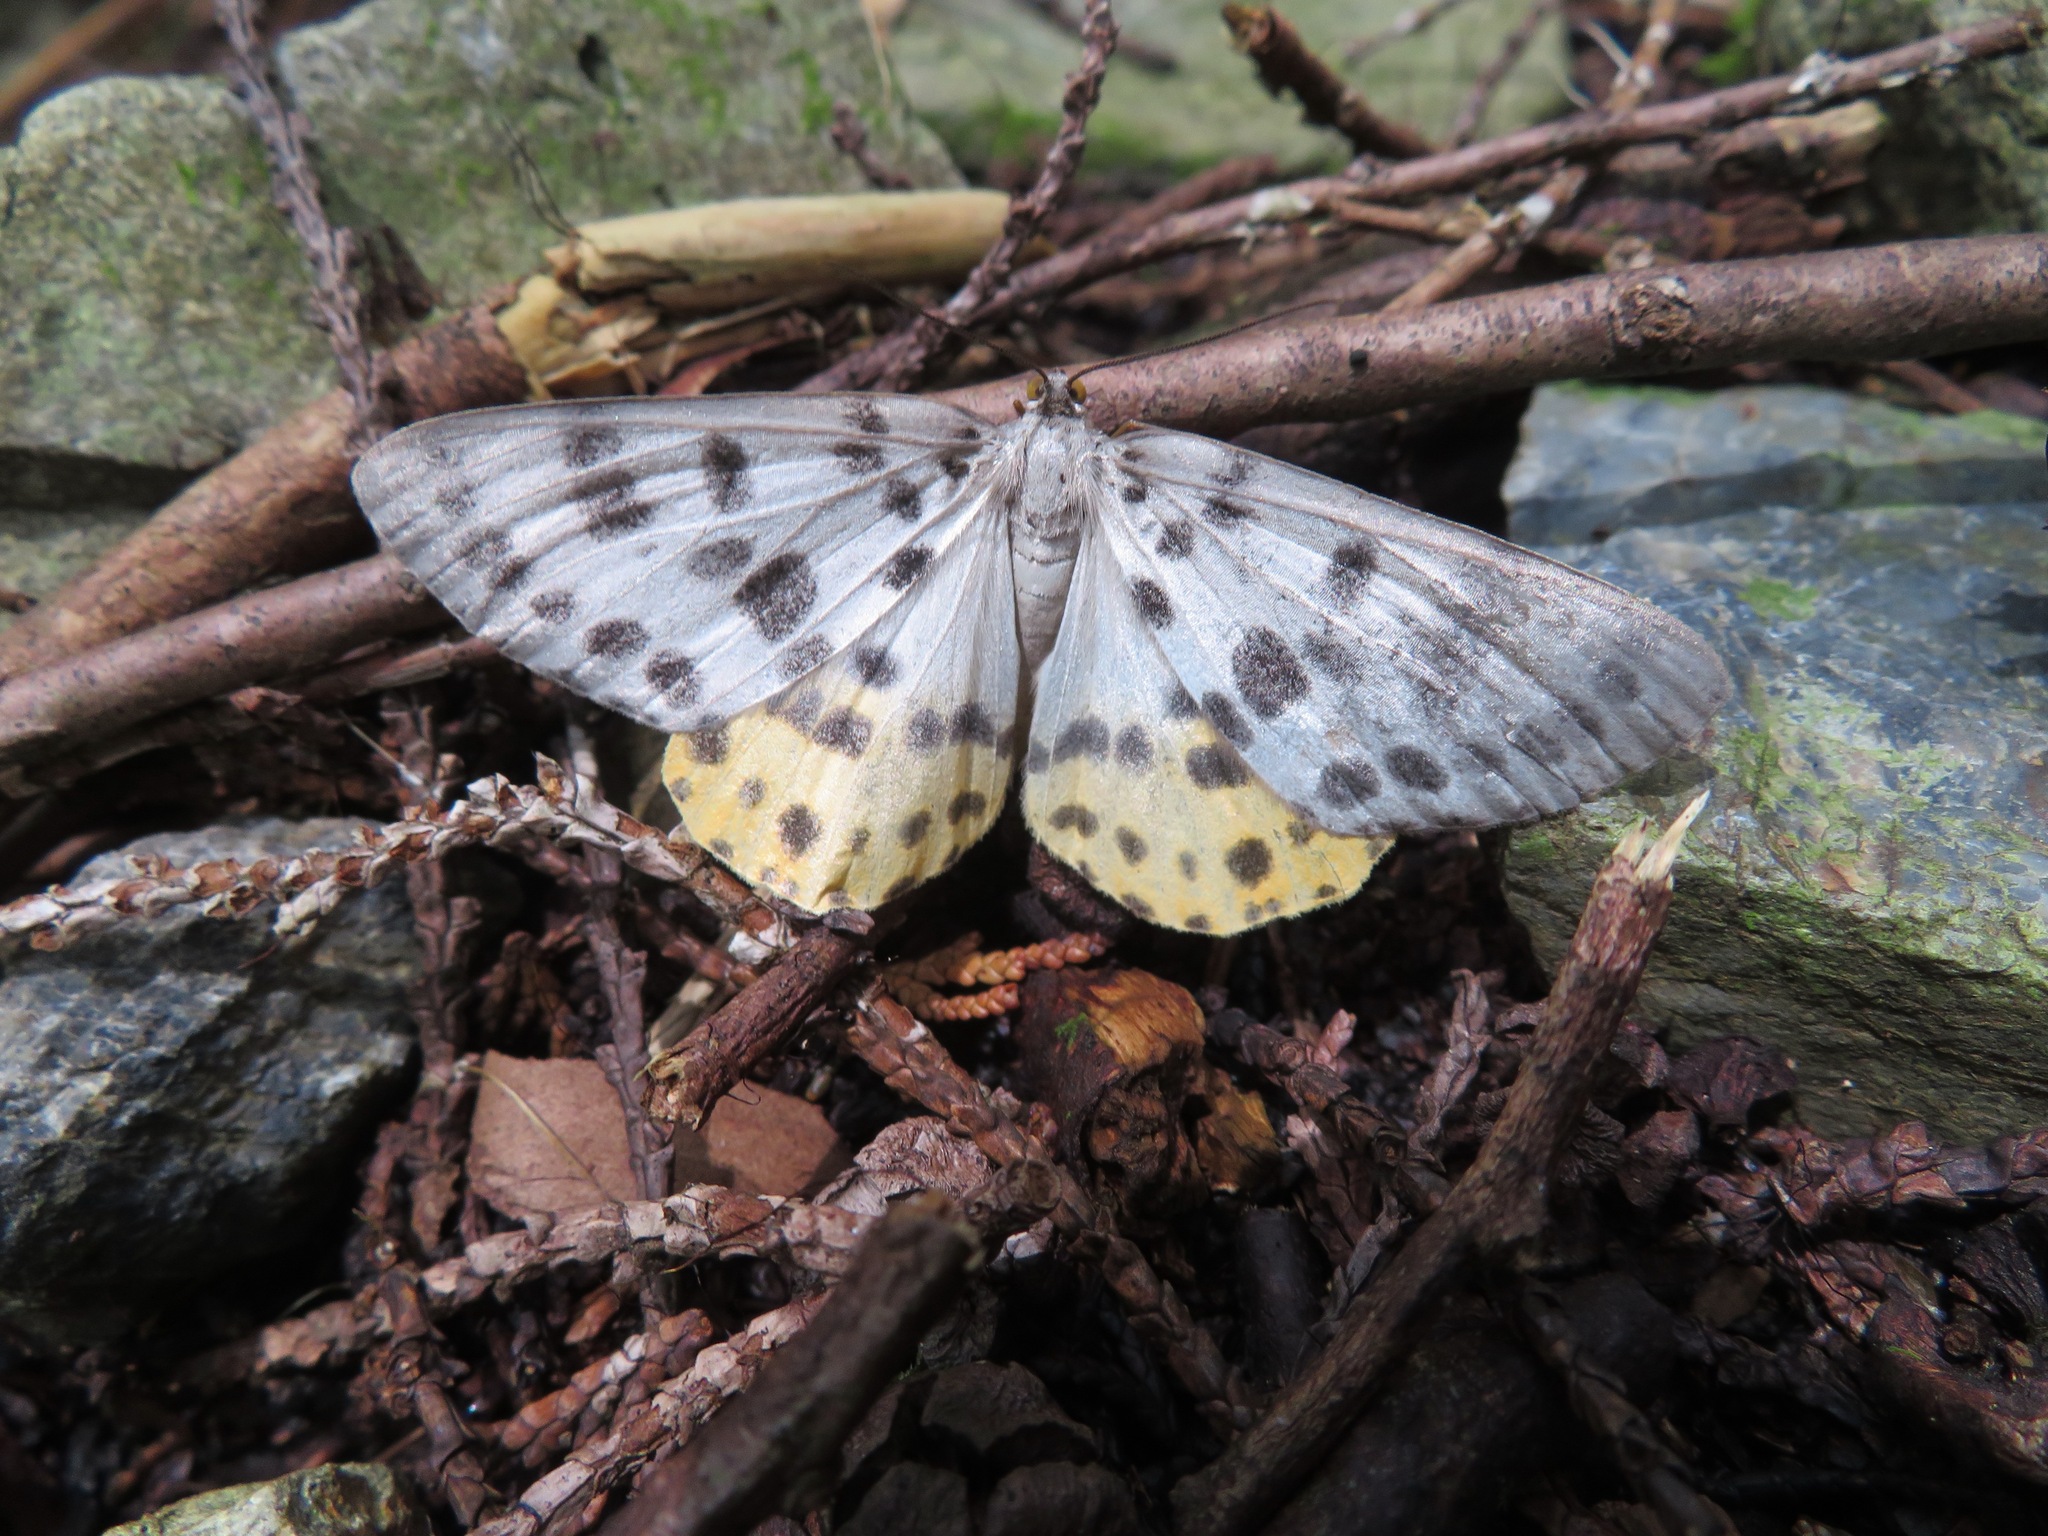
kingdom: Animalia
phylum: Arthropoda
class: Insecta
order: Lepidoptera
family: Geometridae
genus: Arichanna
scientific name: Arichanna
